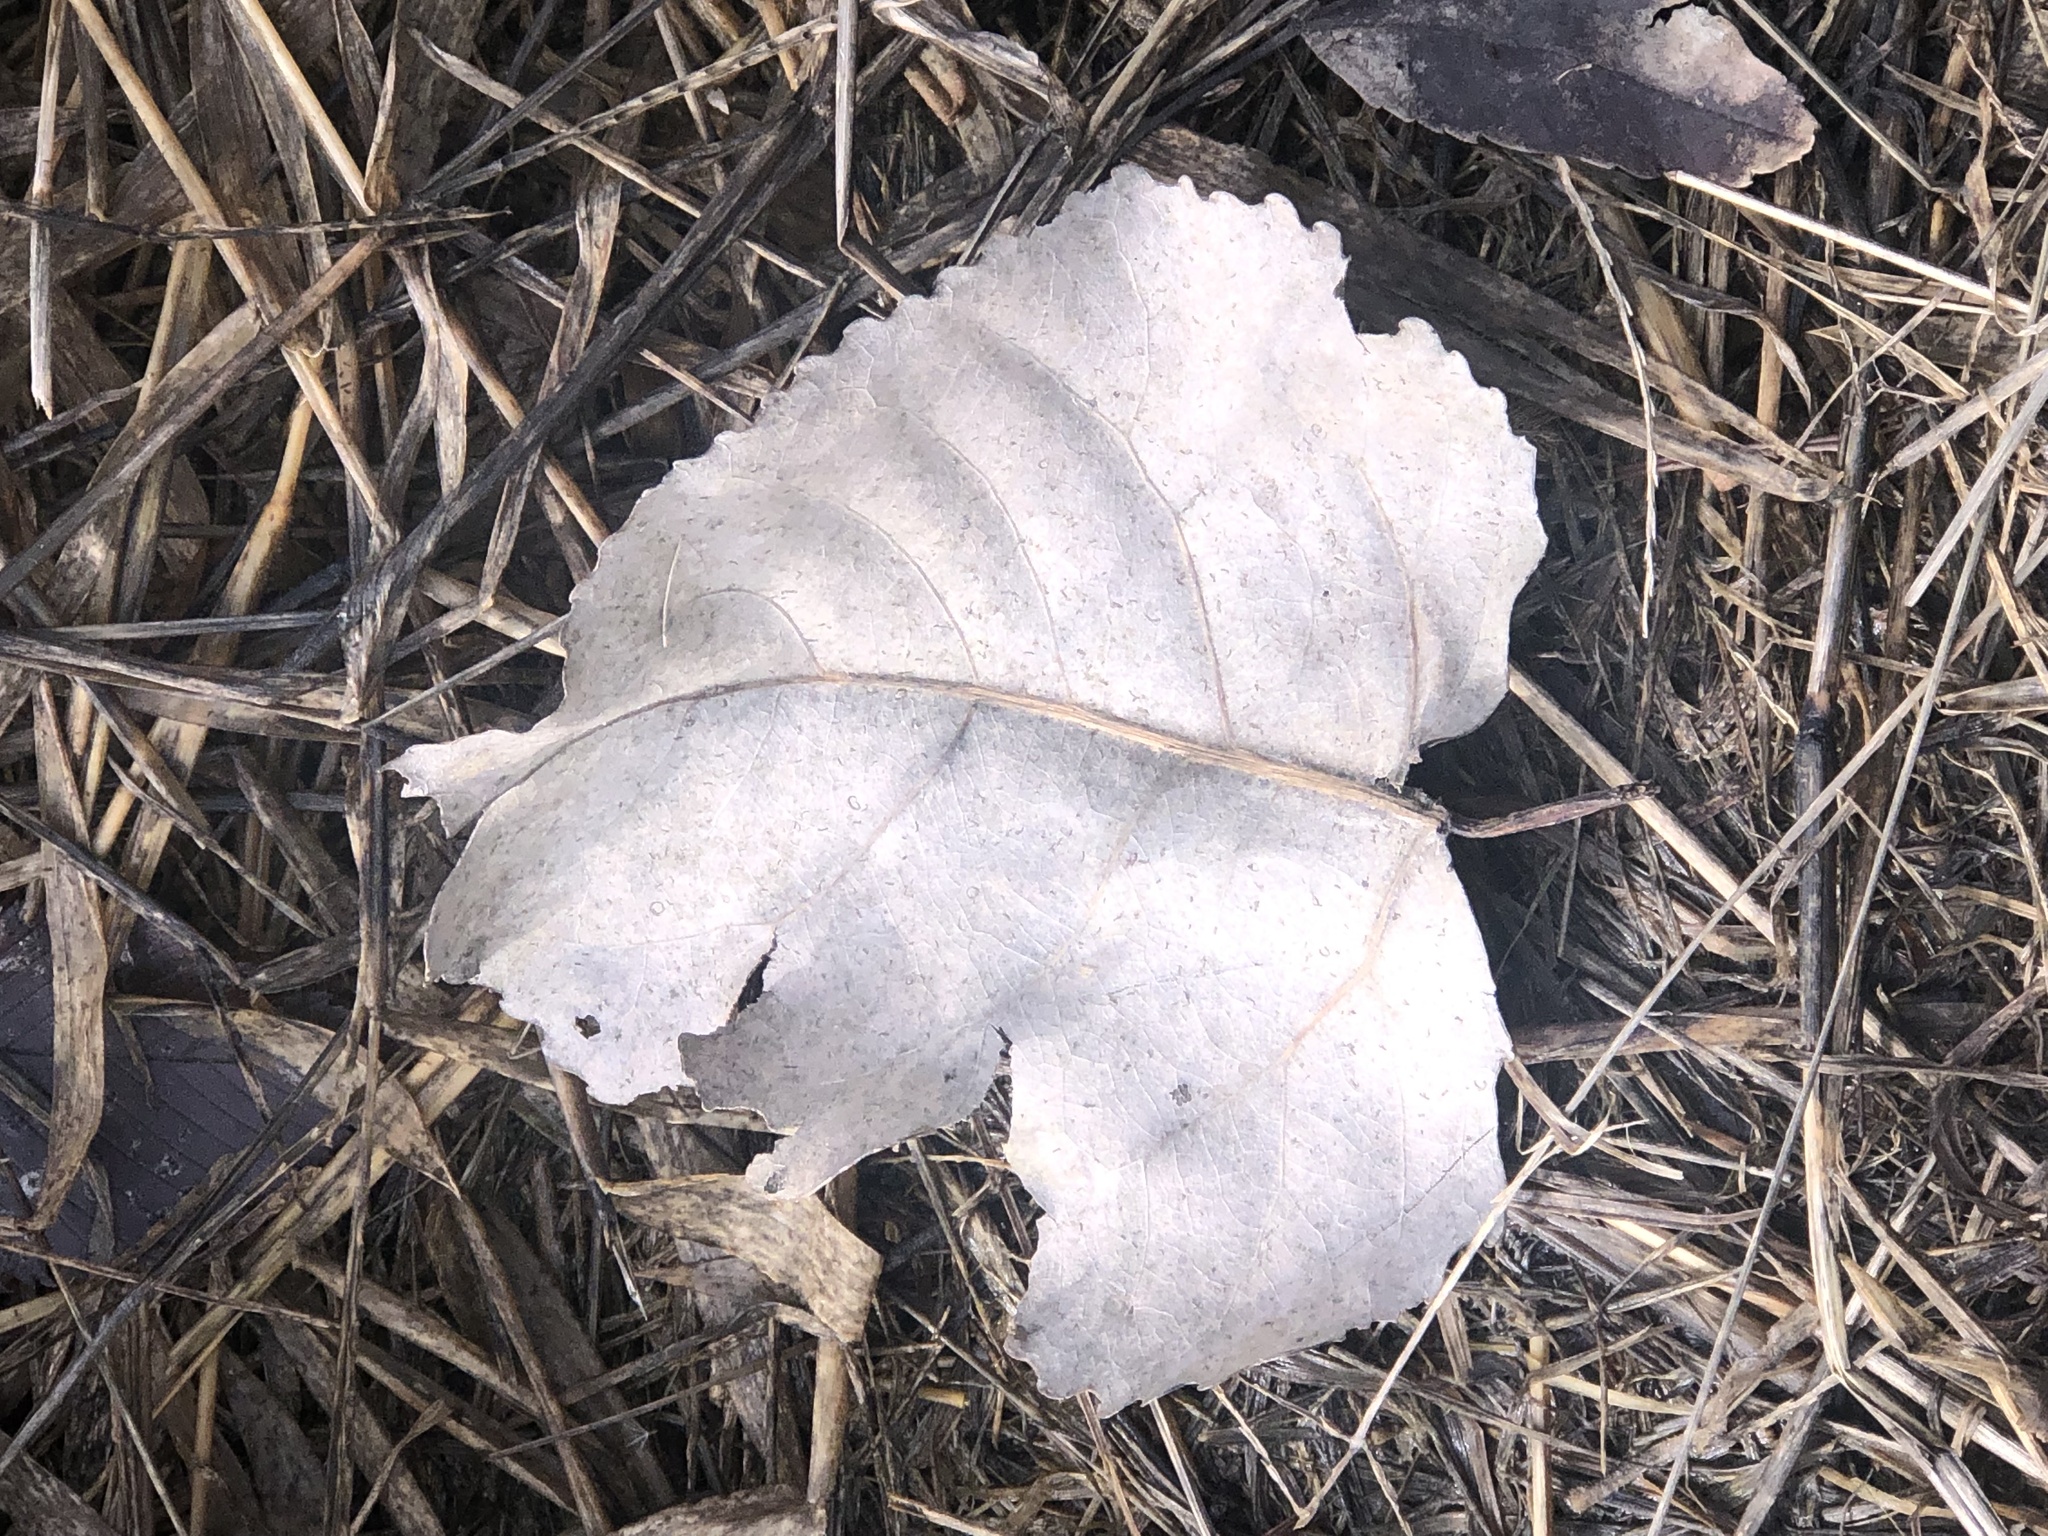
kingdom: Plantae
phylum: Tracheophyta
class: Magnoliopsida
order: Malpighiales
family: Salicaceae
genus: Populus
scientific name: Populus deltoides
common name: Eastern cottonwood
